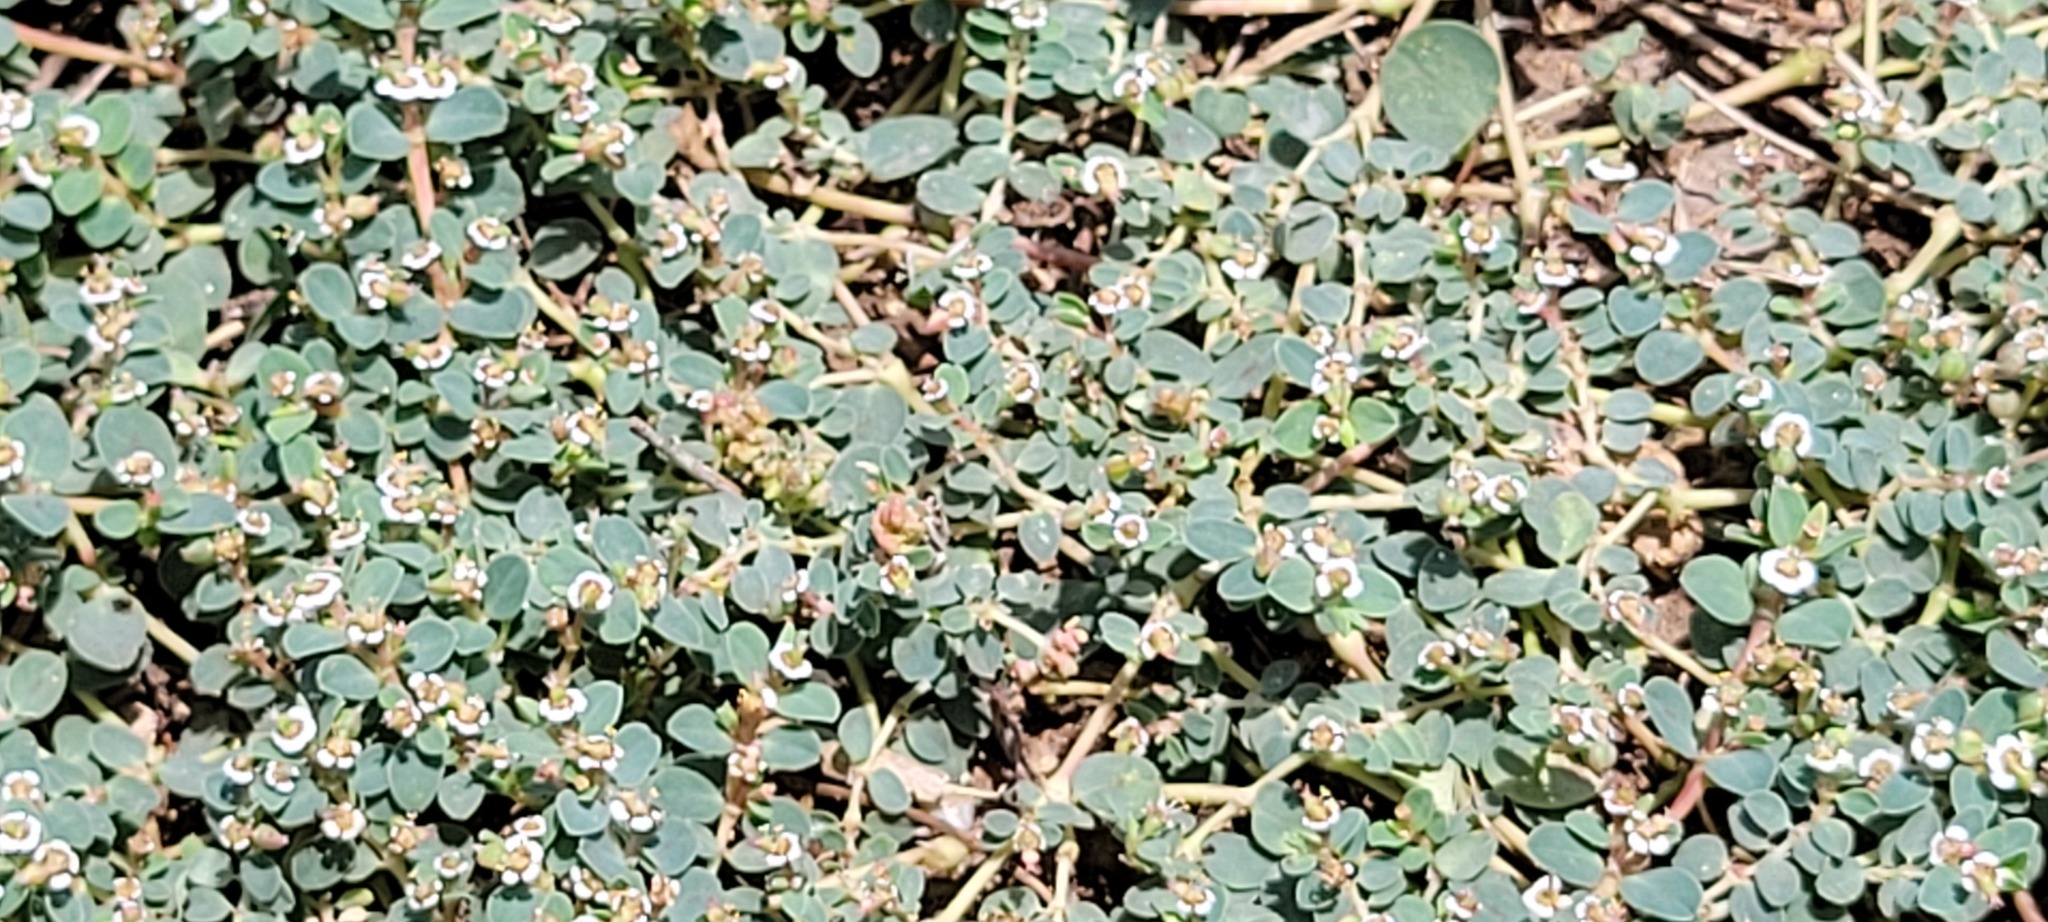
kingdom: Plantae
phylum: Tracheophyta
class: Magnoliopsida
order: Malpighiales
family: Euphorbiaceae
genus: Euphorbia
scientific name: Euphorbia albomarginata
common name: Whitemargin sandmat
